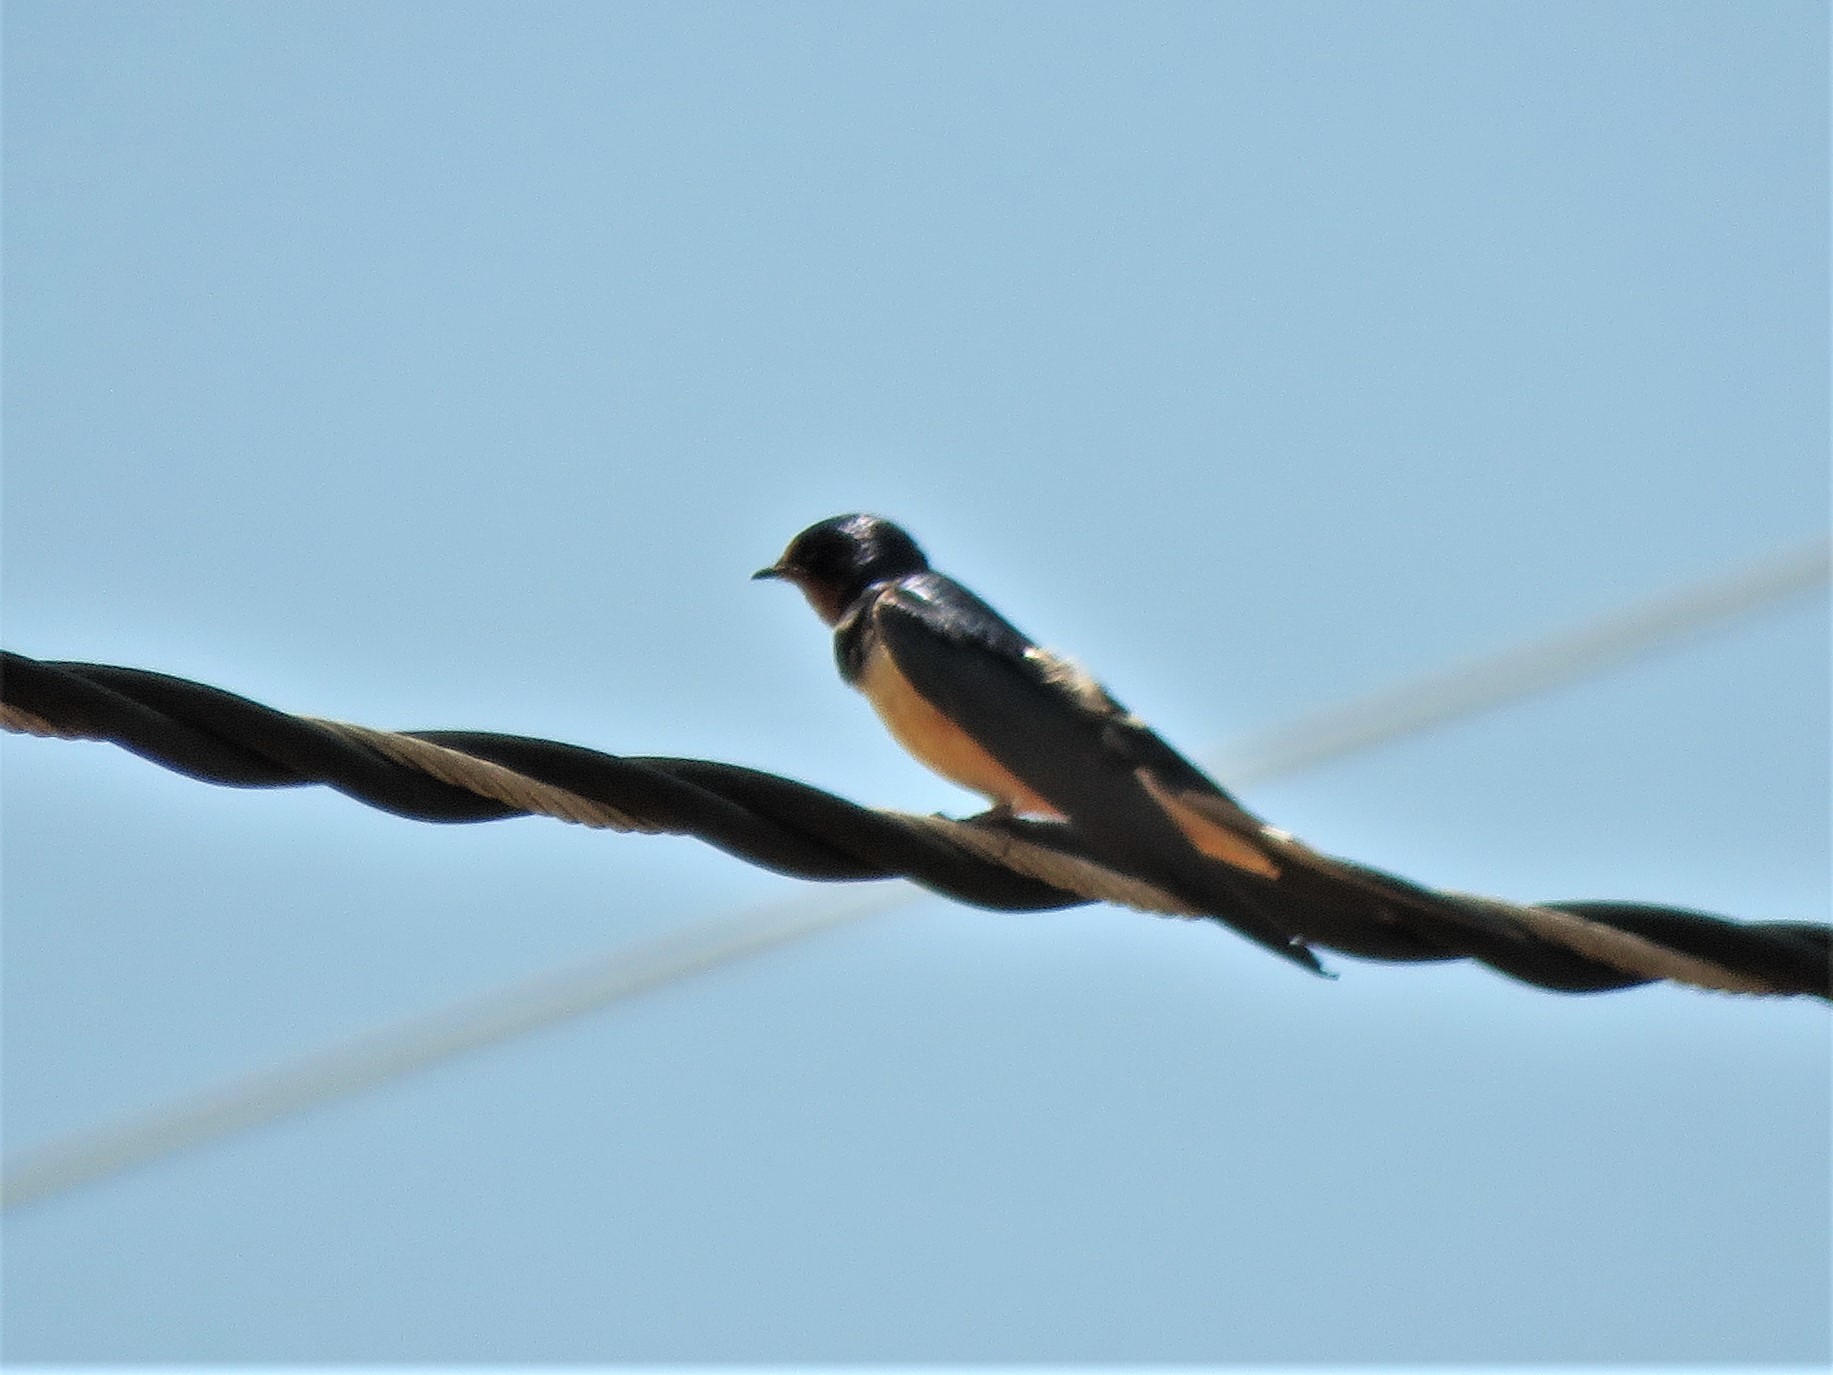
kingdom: Animalia
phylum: Chordata
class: Aves
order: Passeriformes
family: Hirundinidae
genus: Hirundo
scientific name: Hirundo rustica
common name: Barn swallow
